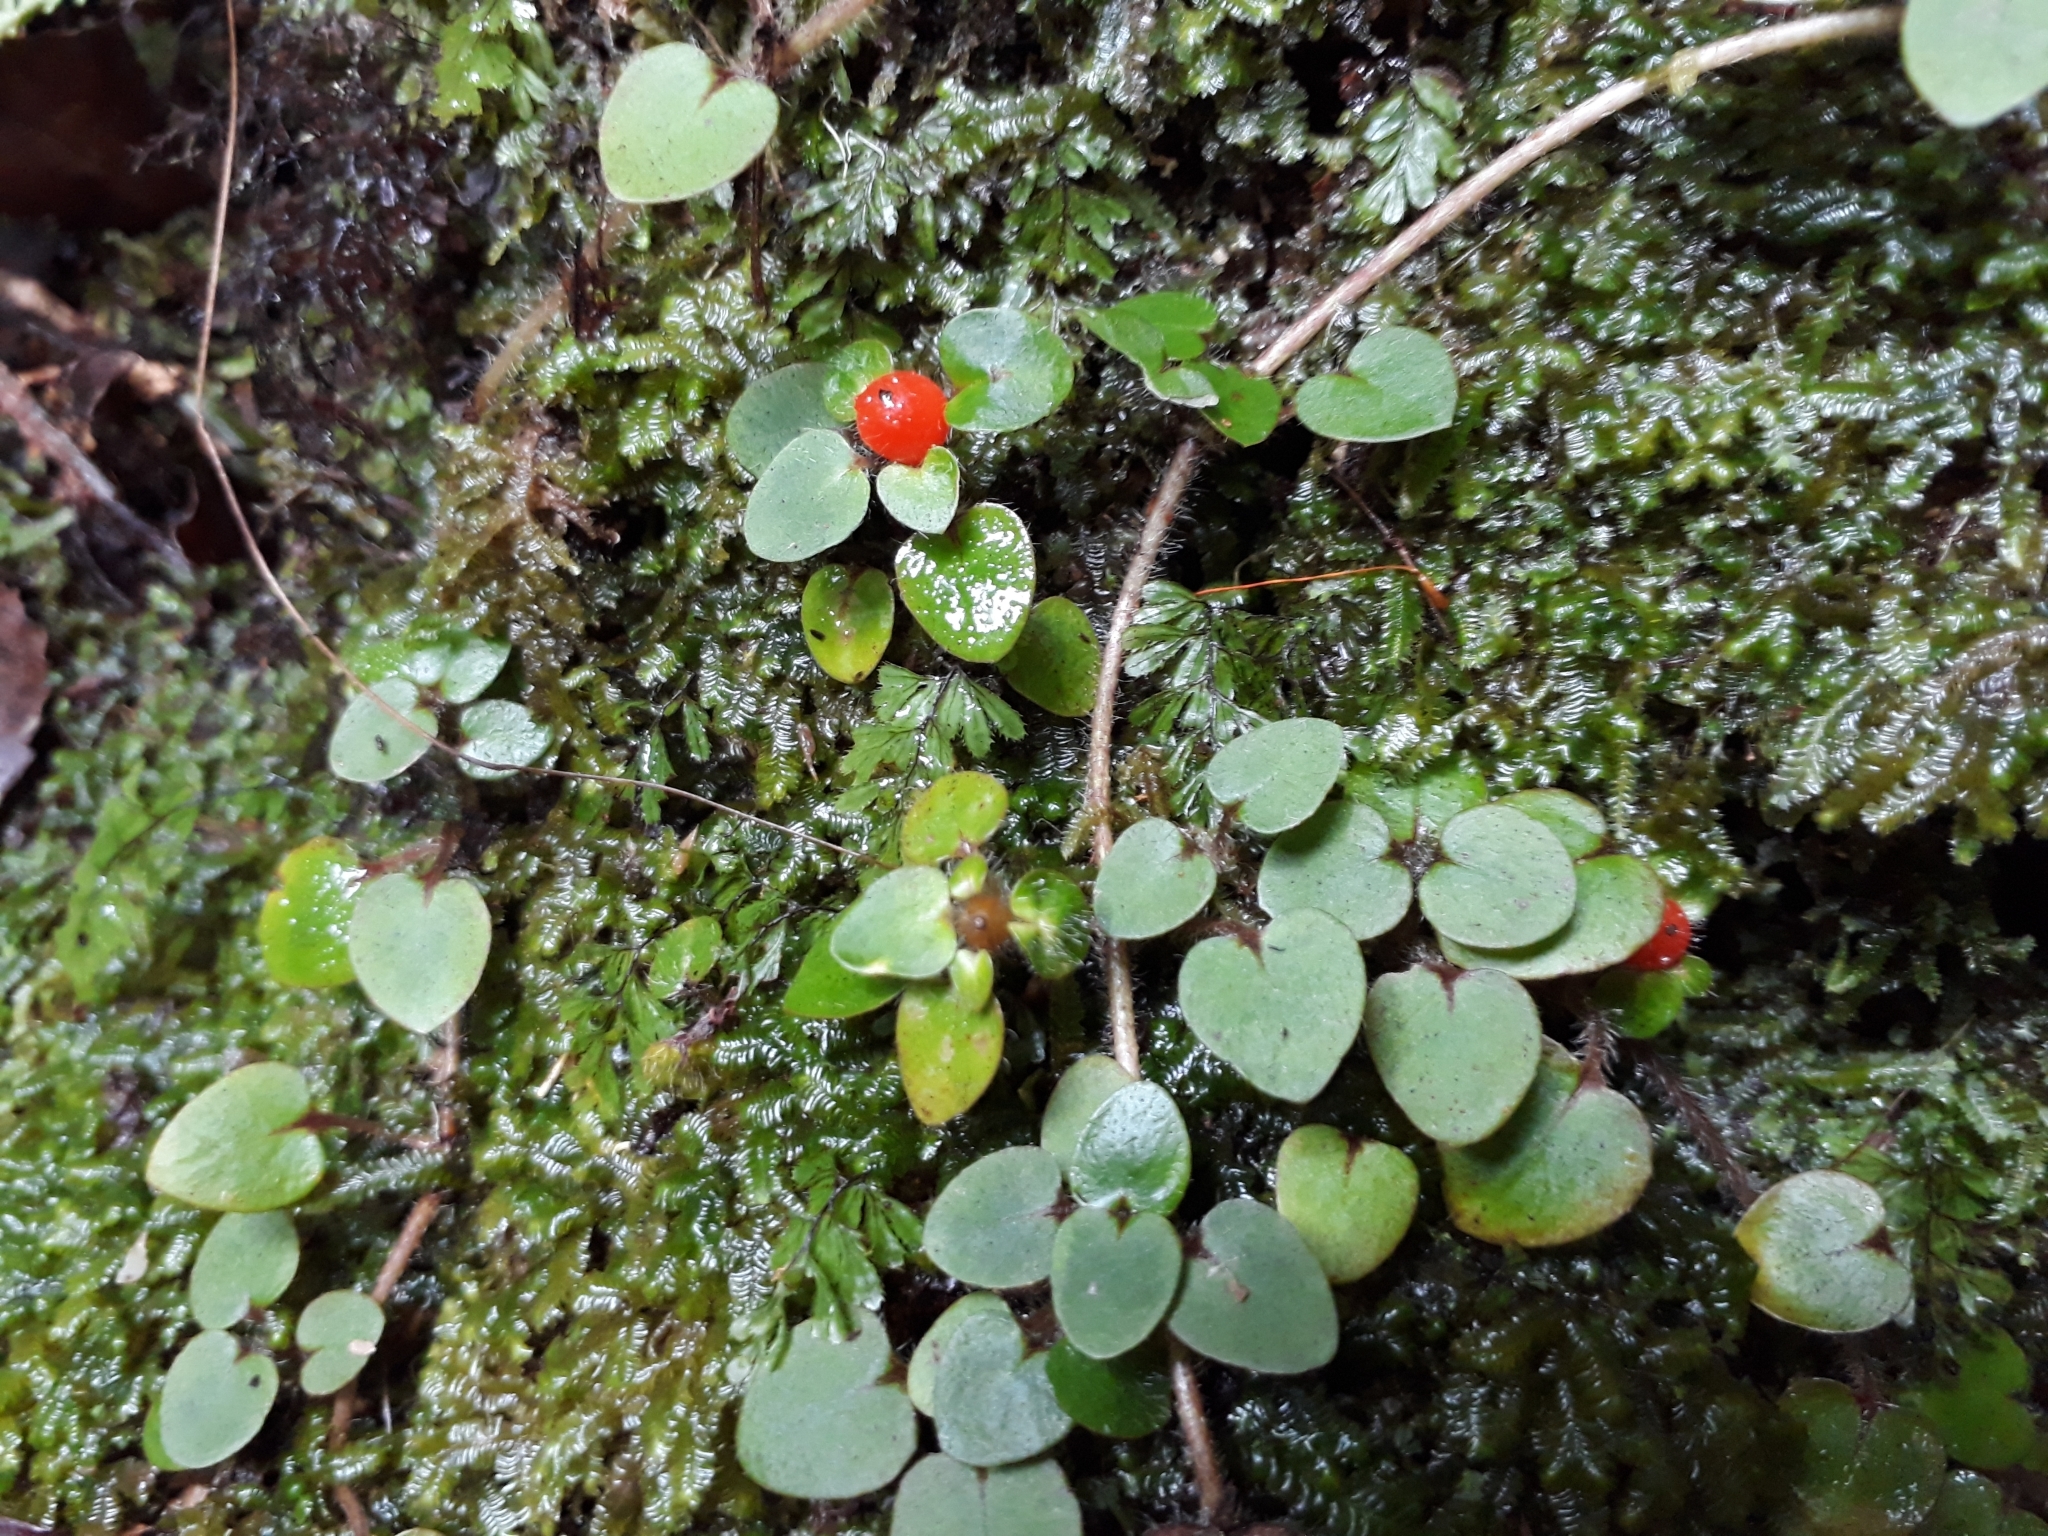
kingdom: Plantae
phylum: Tracheophyta
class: Magnoliopsida
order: Gentianales
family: Rubiaceae
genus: Nertera
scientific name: Nertera villosa
